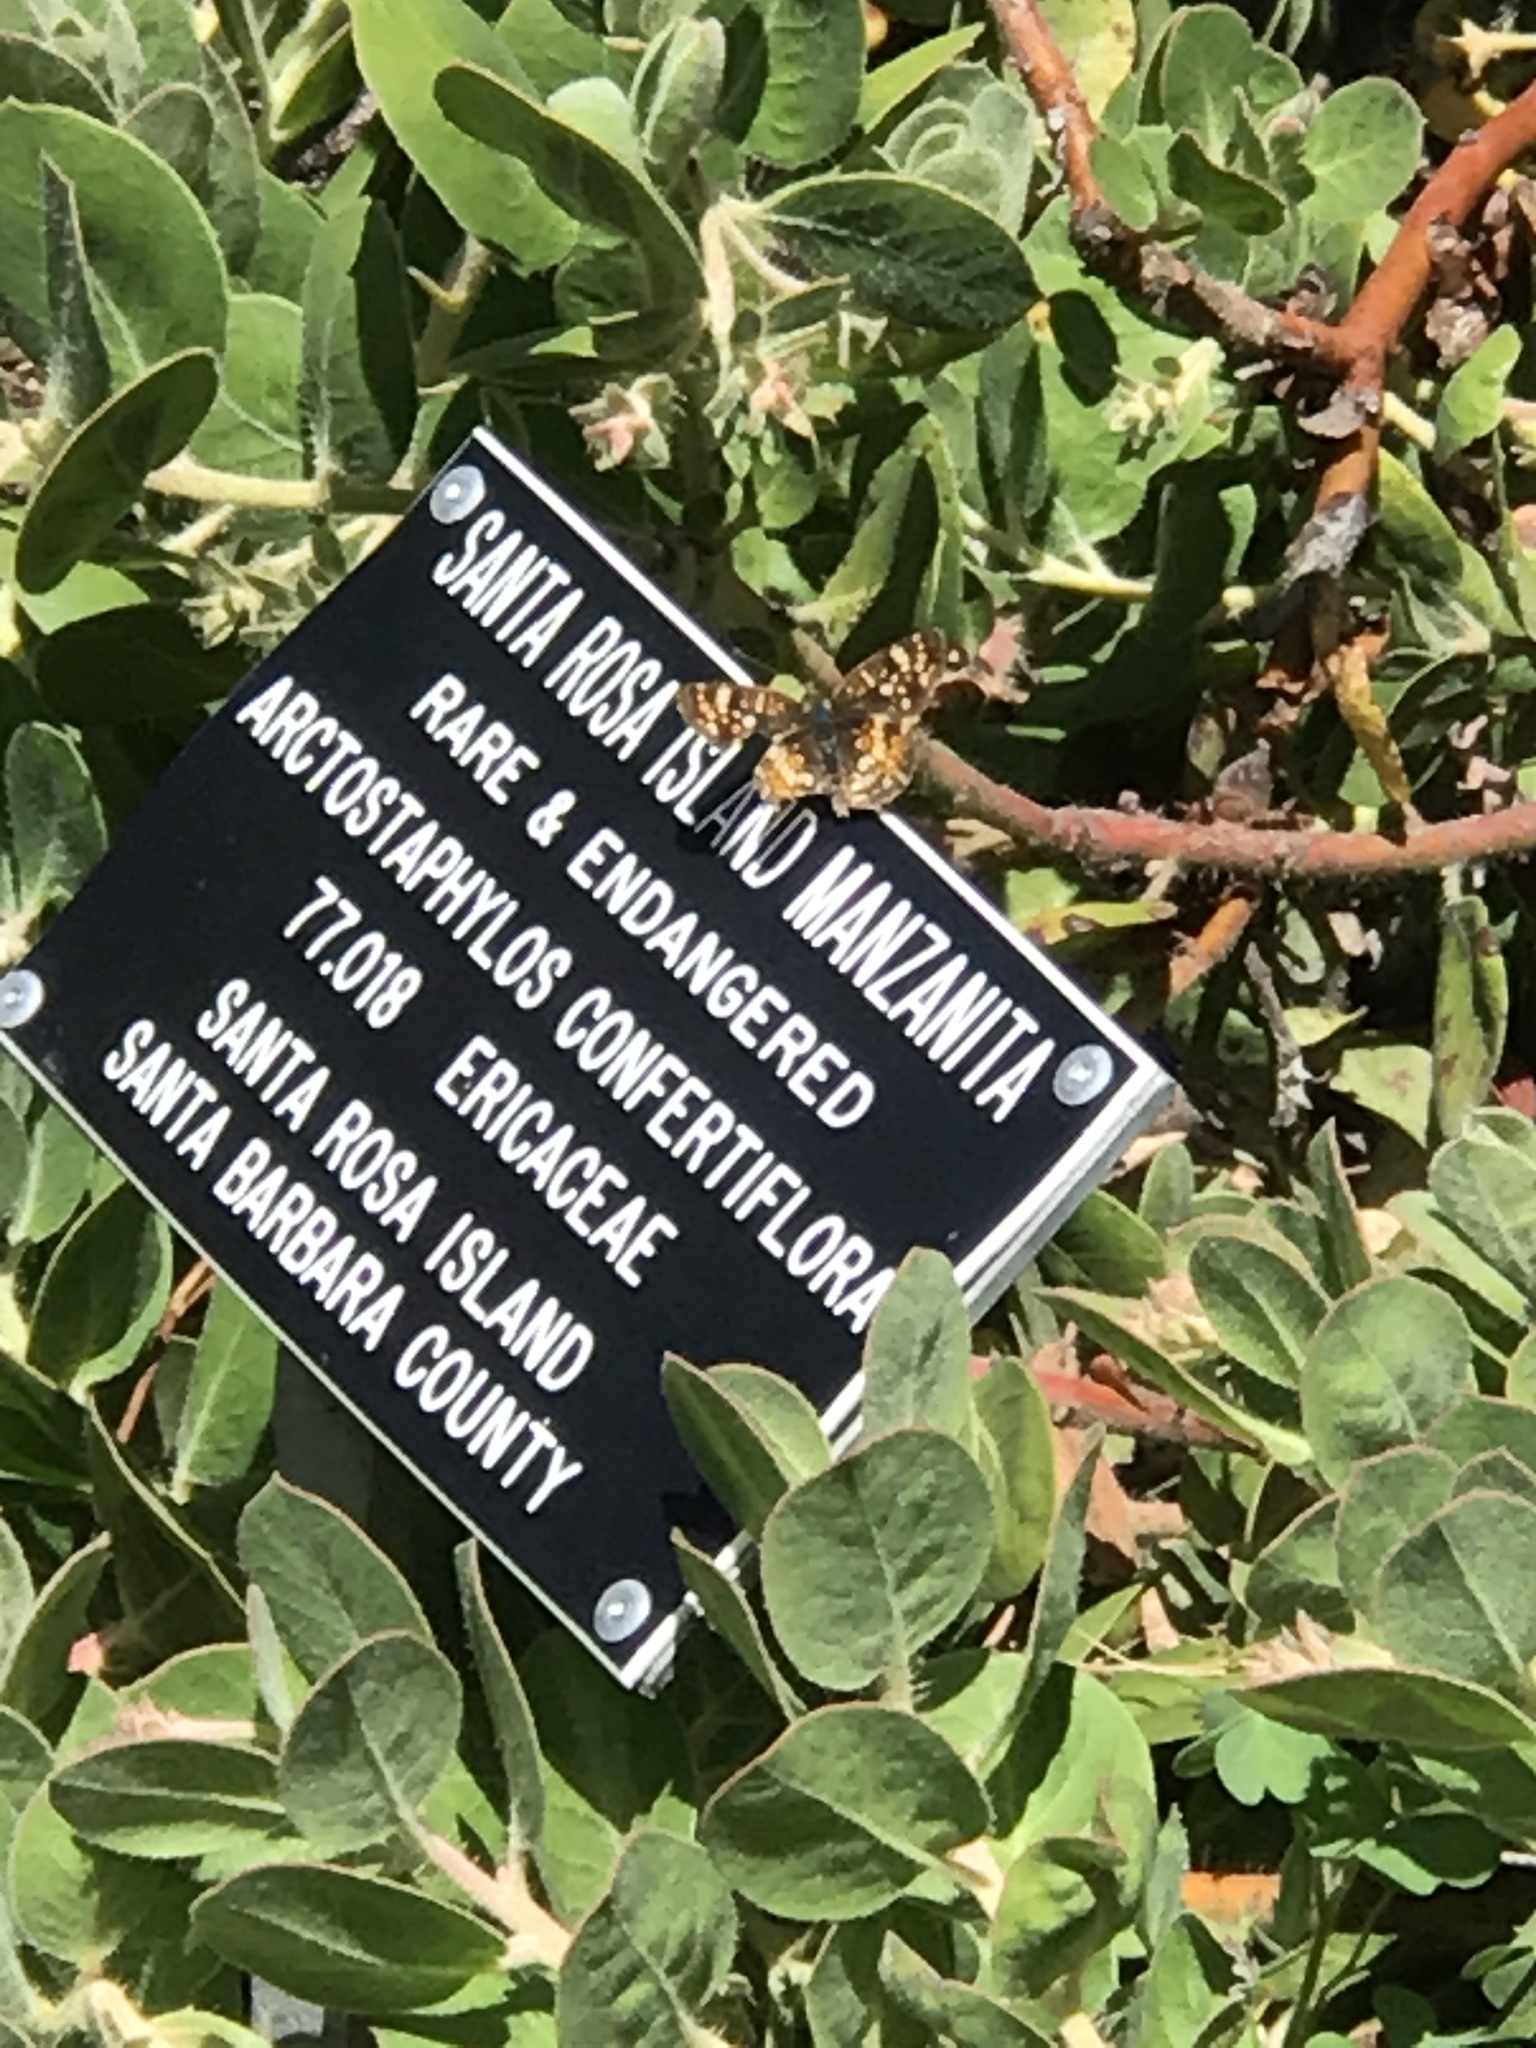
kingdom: Animalia
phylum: Arthropoda
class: Insecta
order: Lepidoptera
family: Nymphalidae
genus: Phyciodes
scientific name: Phyciodes tharos
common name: Pearl crescent
